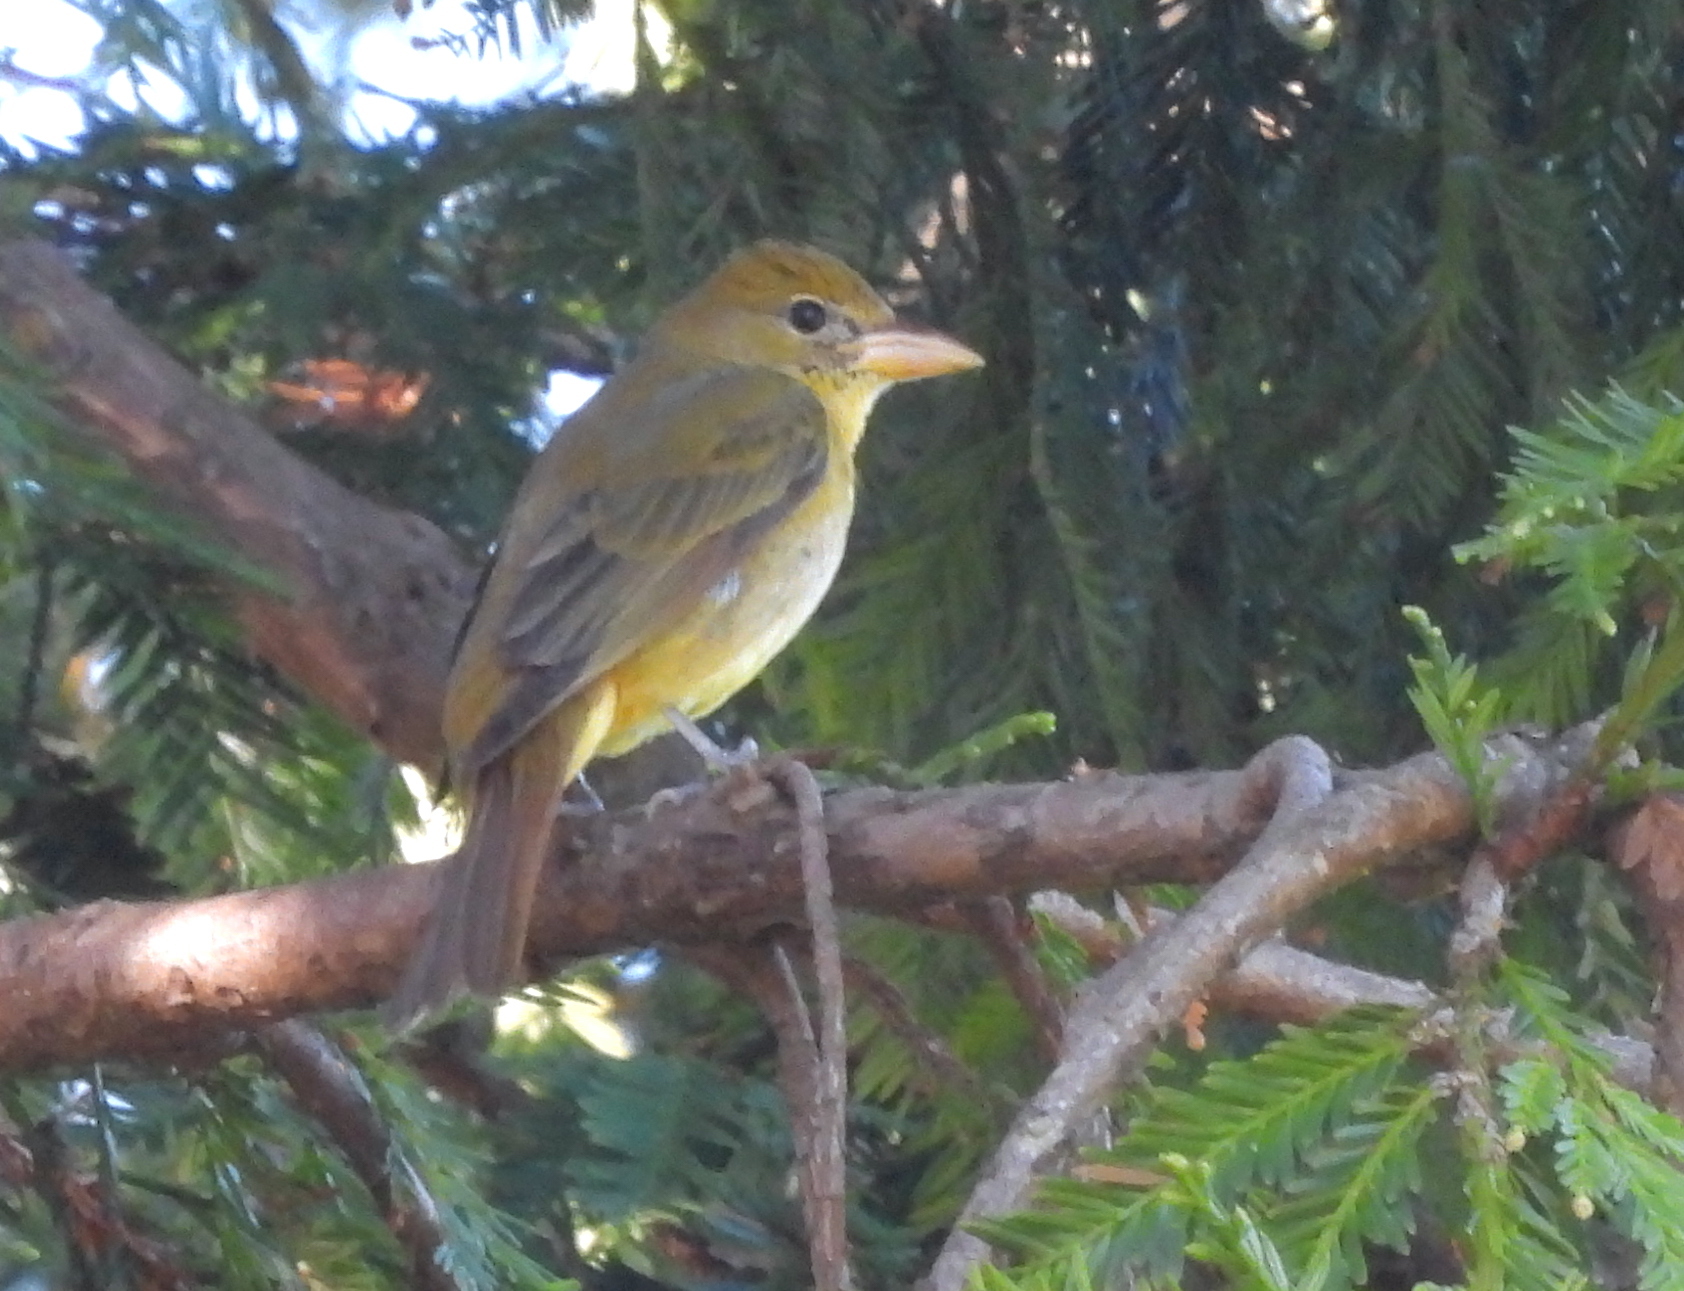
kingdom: Animalia
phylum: Chordata
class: Aves
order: Passeriformes
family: Cardinalidae
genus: Piranga
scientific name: Piranga rubra
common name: Summer tanager
